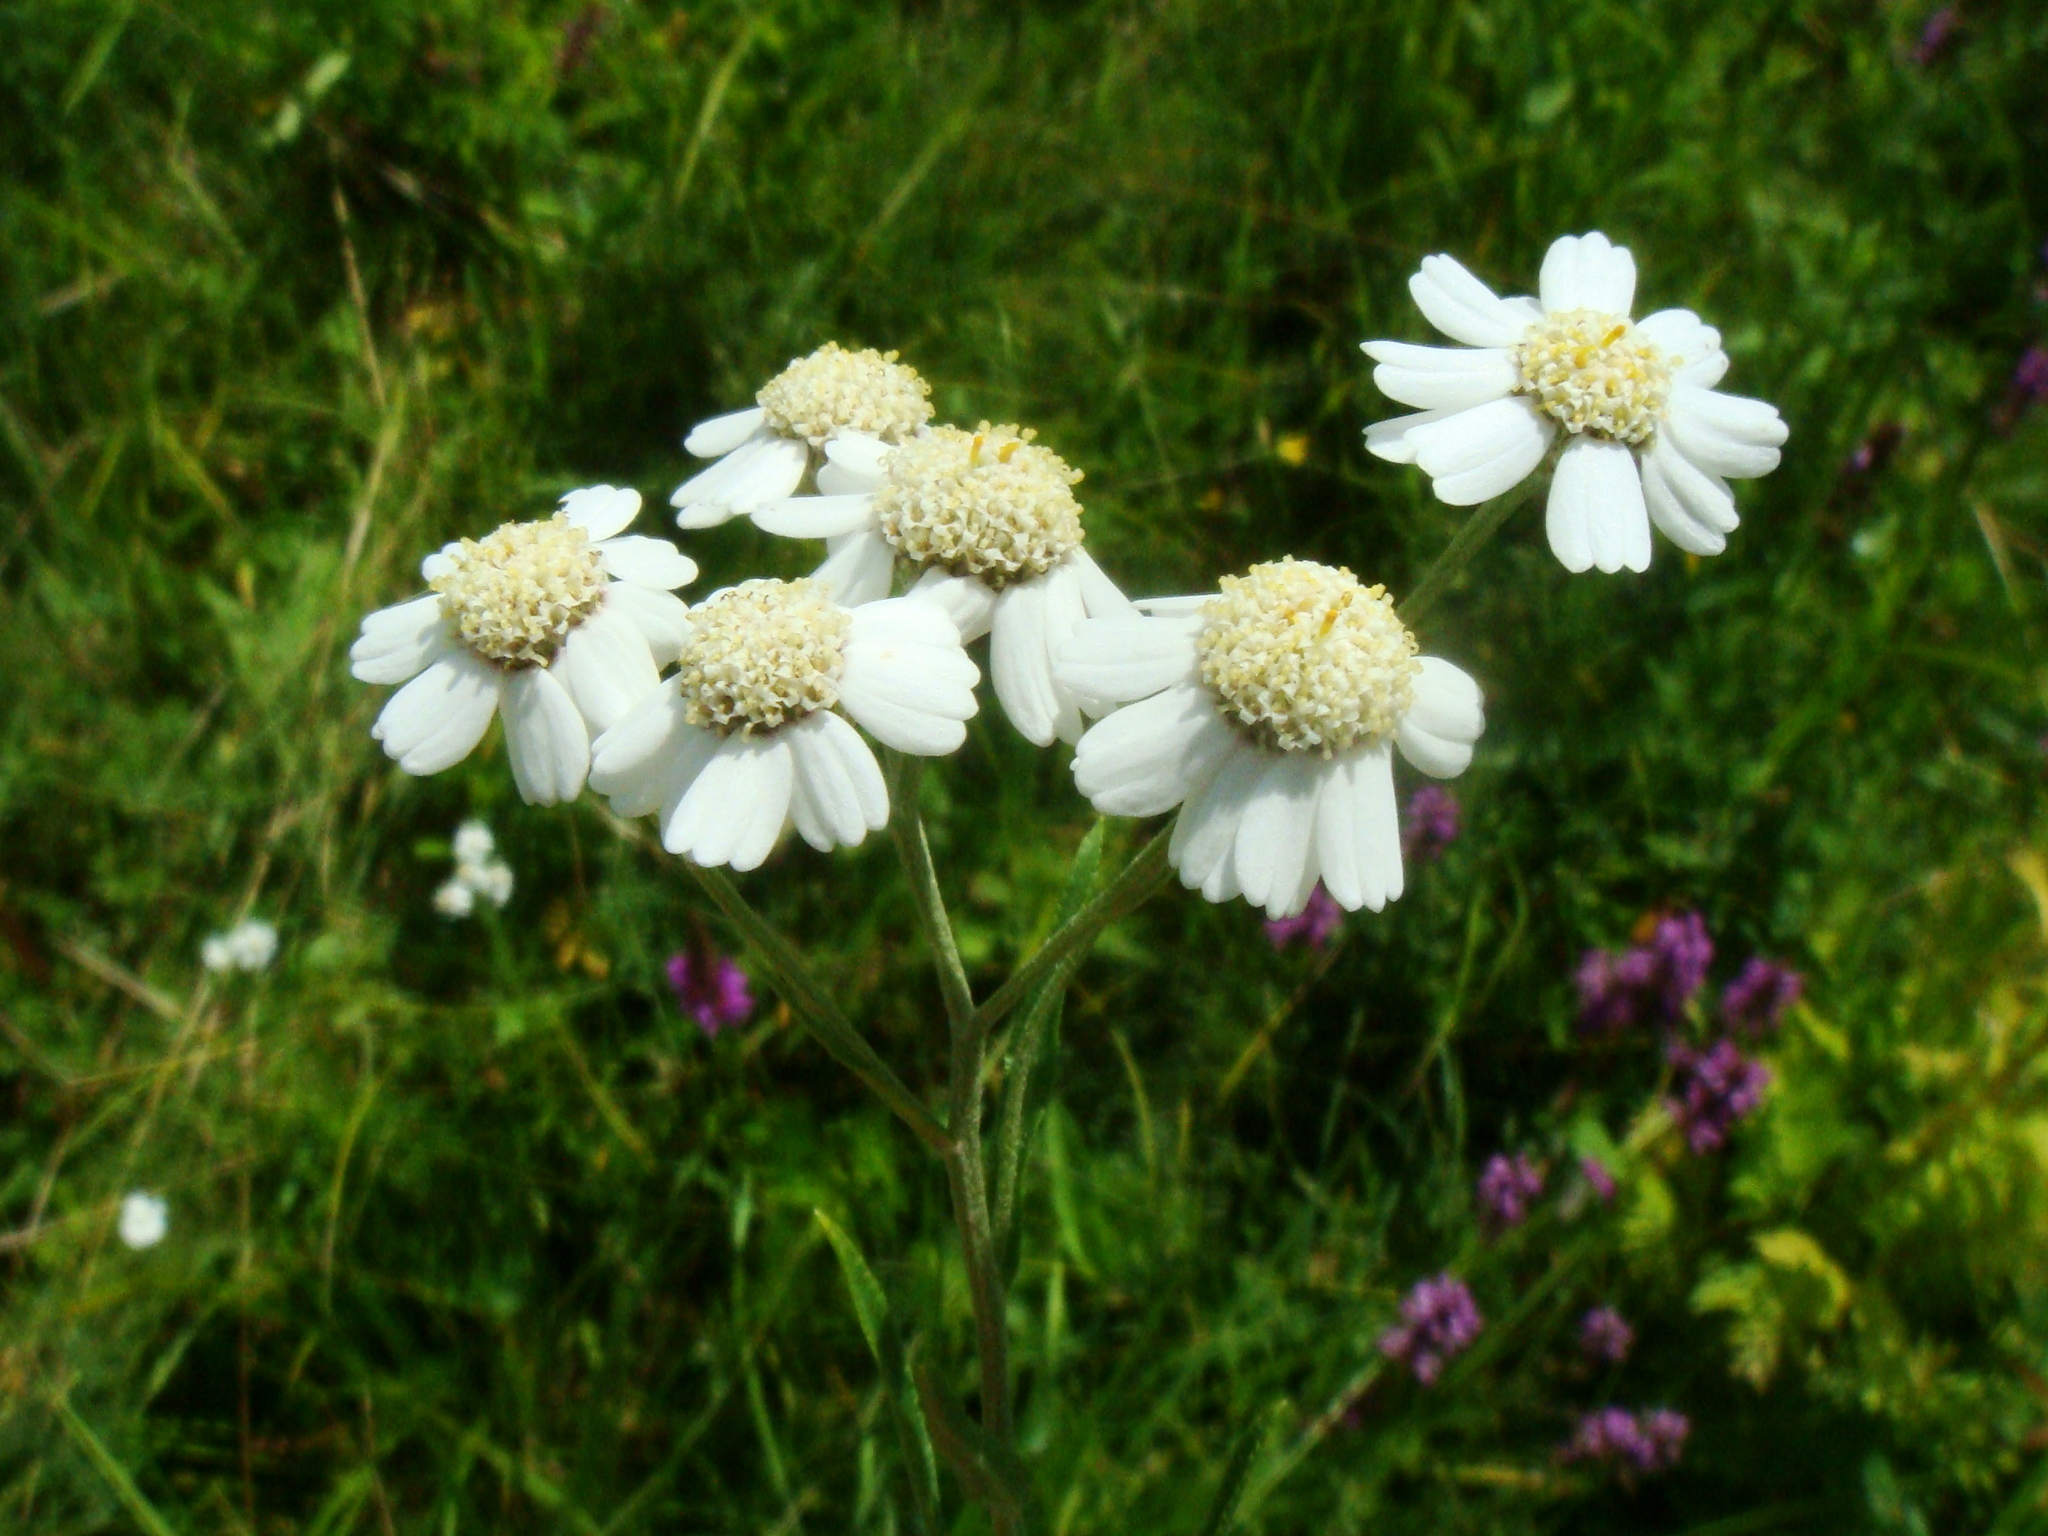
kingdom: Plantae
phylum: Tracheophyta
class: Magnoliopsida
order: Asterales
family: Asteraceae
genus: Achillea
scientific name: Achillea ptarmica
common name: Sneezeweed
